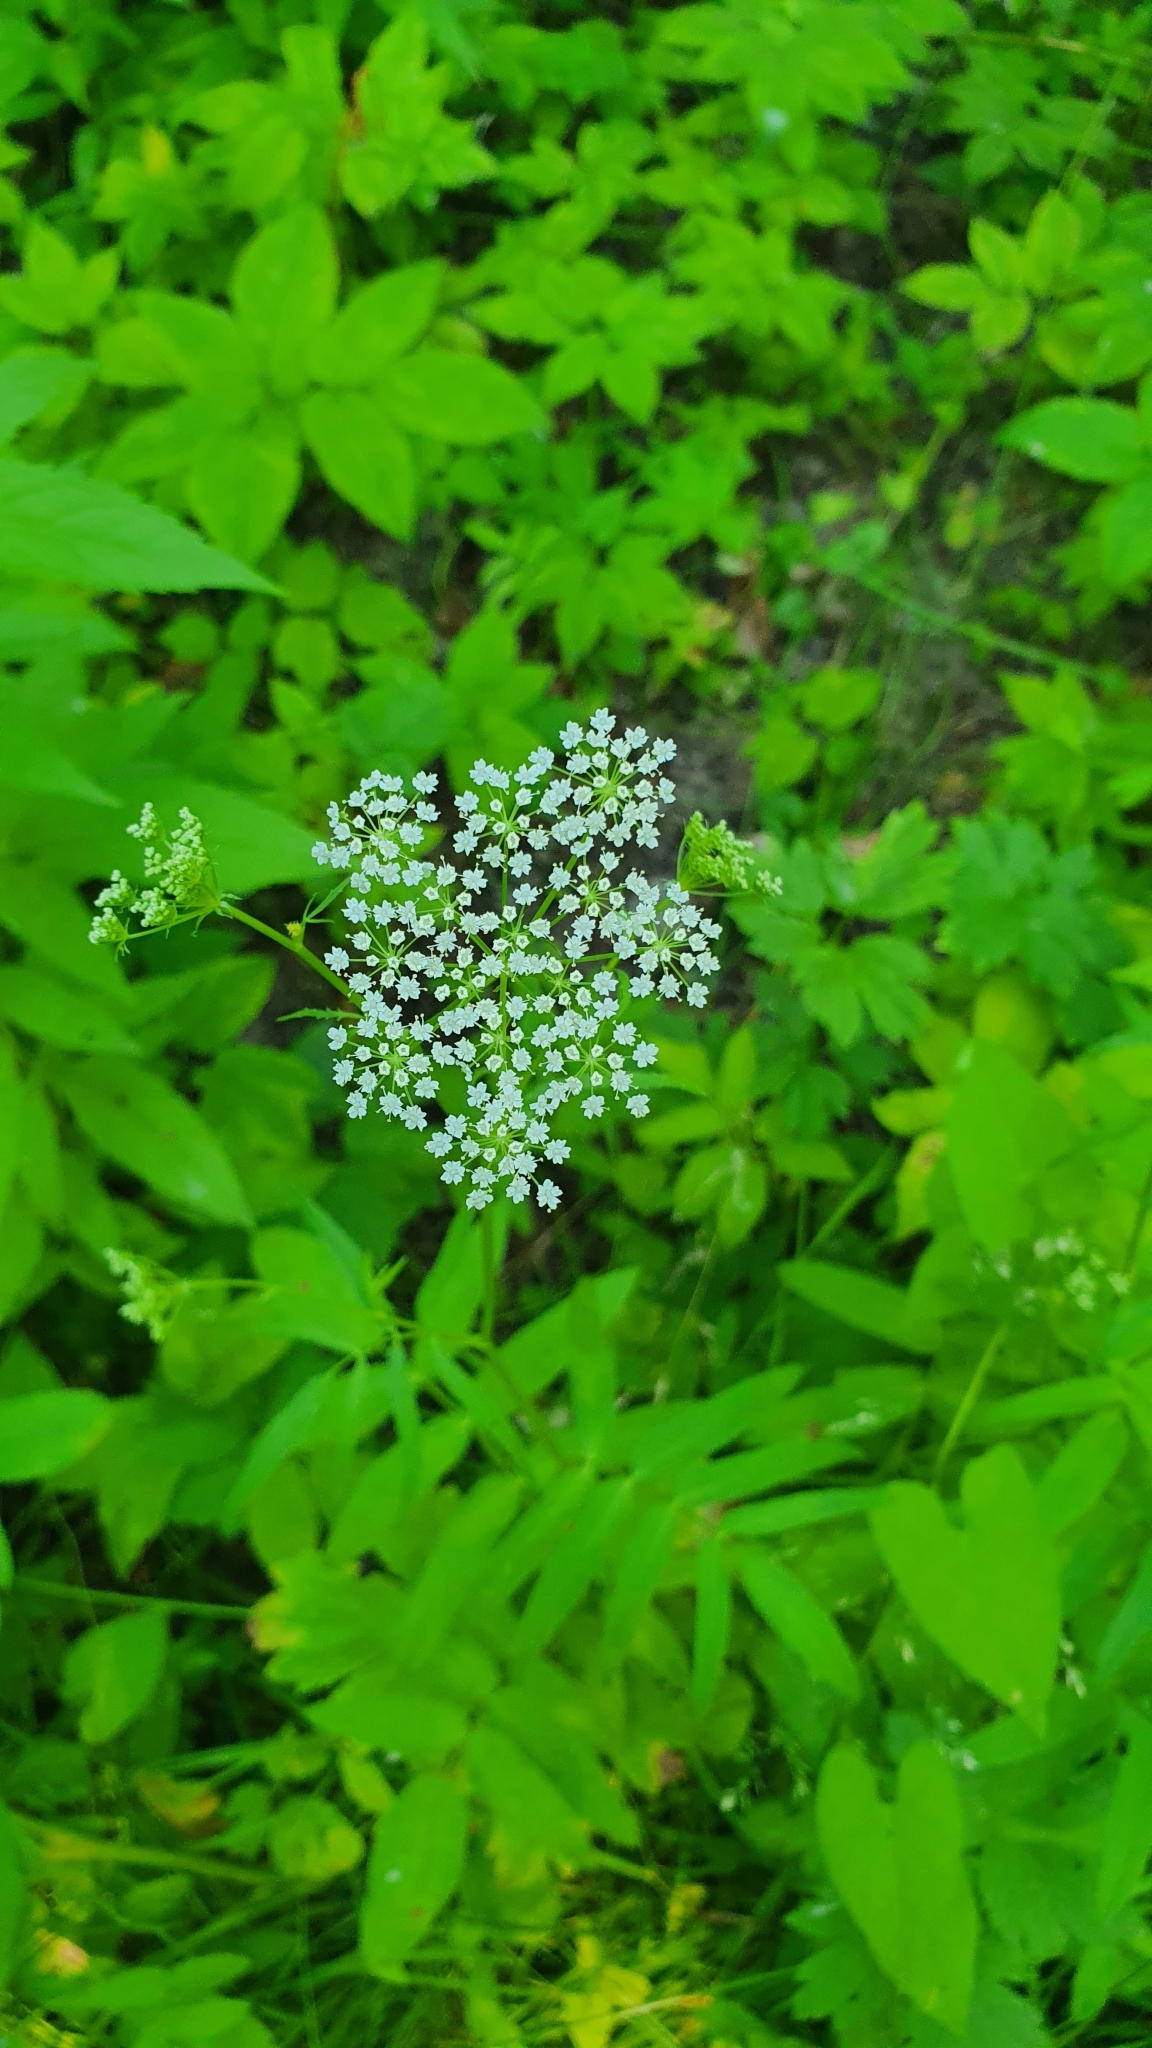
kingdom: Plantae
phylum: Tracheophyta
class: Magnoliopsida
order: Apiales
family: Apiaceae
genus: Sium
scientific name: Sium latifolium
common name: Greater water-parsnip
